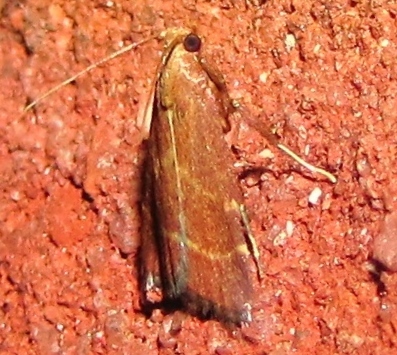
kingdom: Animalia
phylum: Arthropoda
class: Insecta
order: Lepidoptera
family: Pyralidae
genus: Arta
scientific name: Arta statalis
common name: Posturing arta moth
